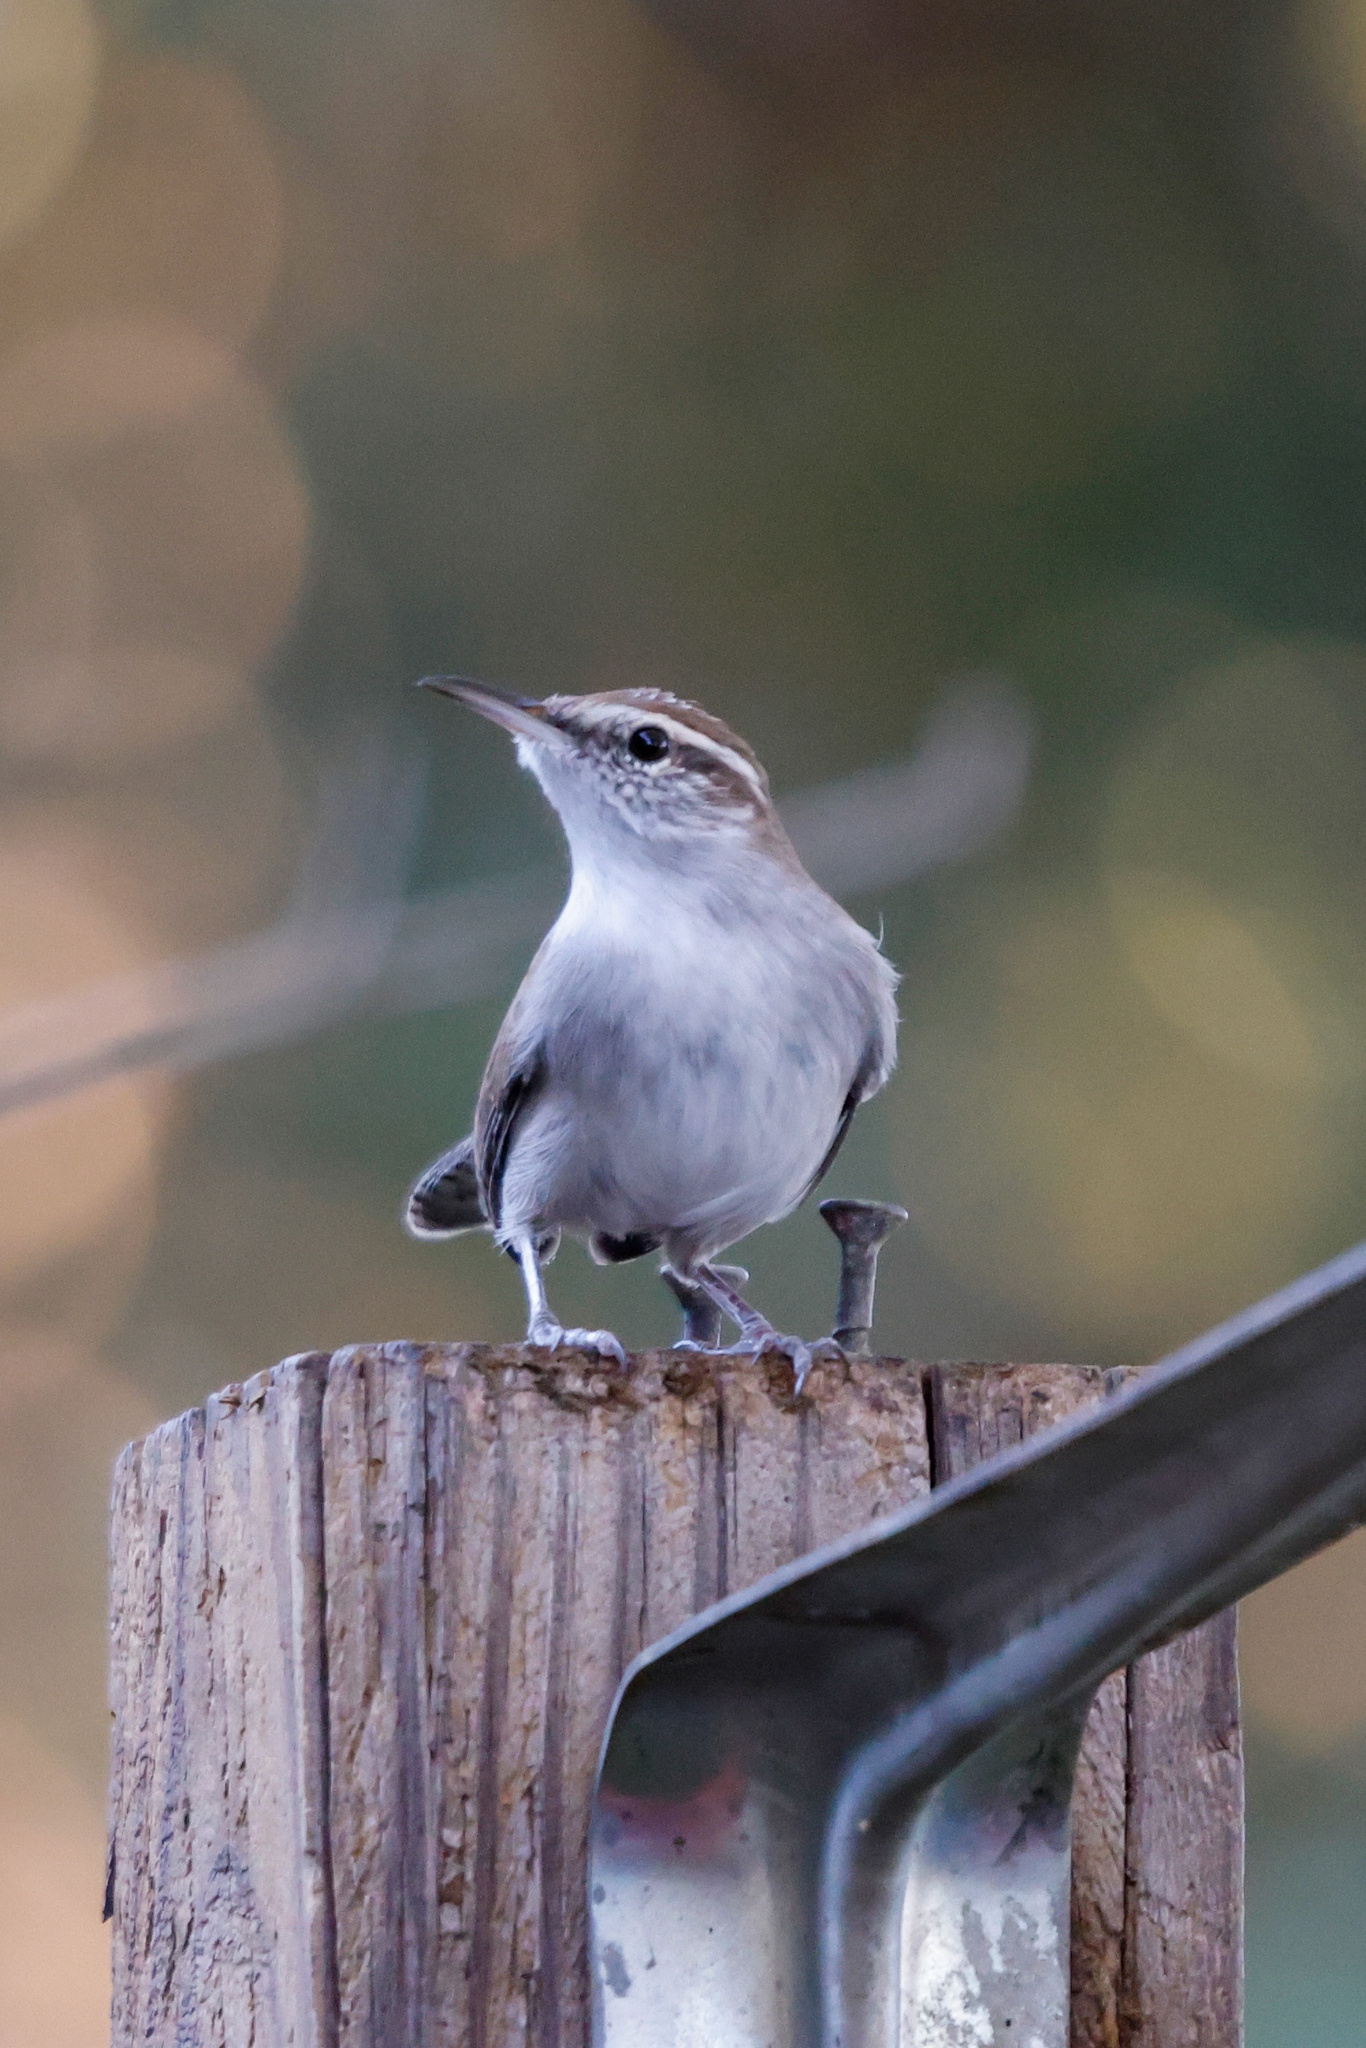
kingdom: Animalia
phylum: Chordata
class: Aves
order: Passeriformes
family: Troglodytidae
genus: Thryomanes
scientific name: Thryomanes bewickii
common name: Bewick's wren
